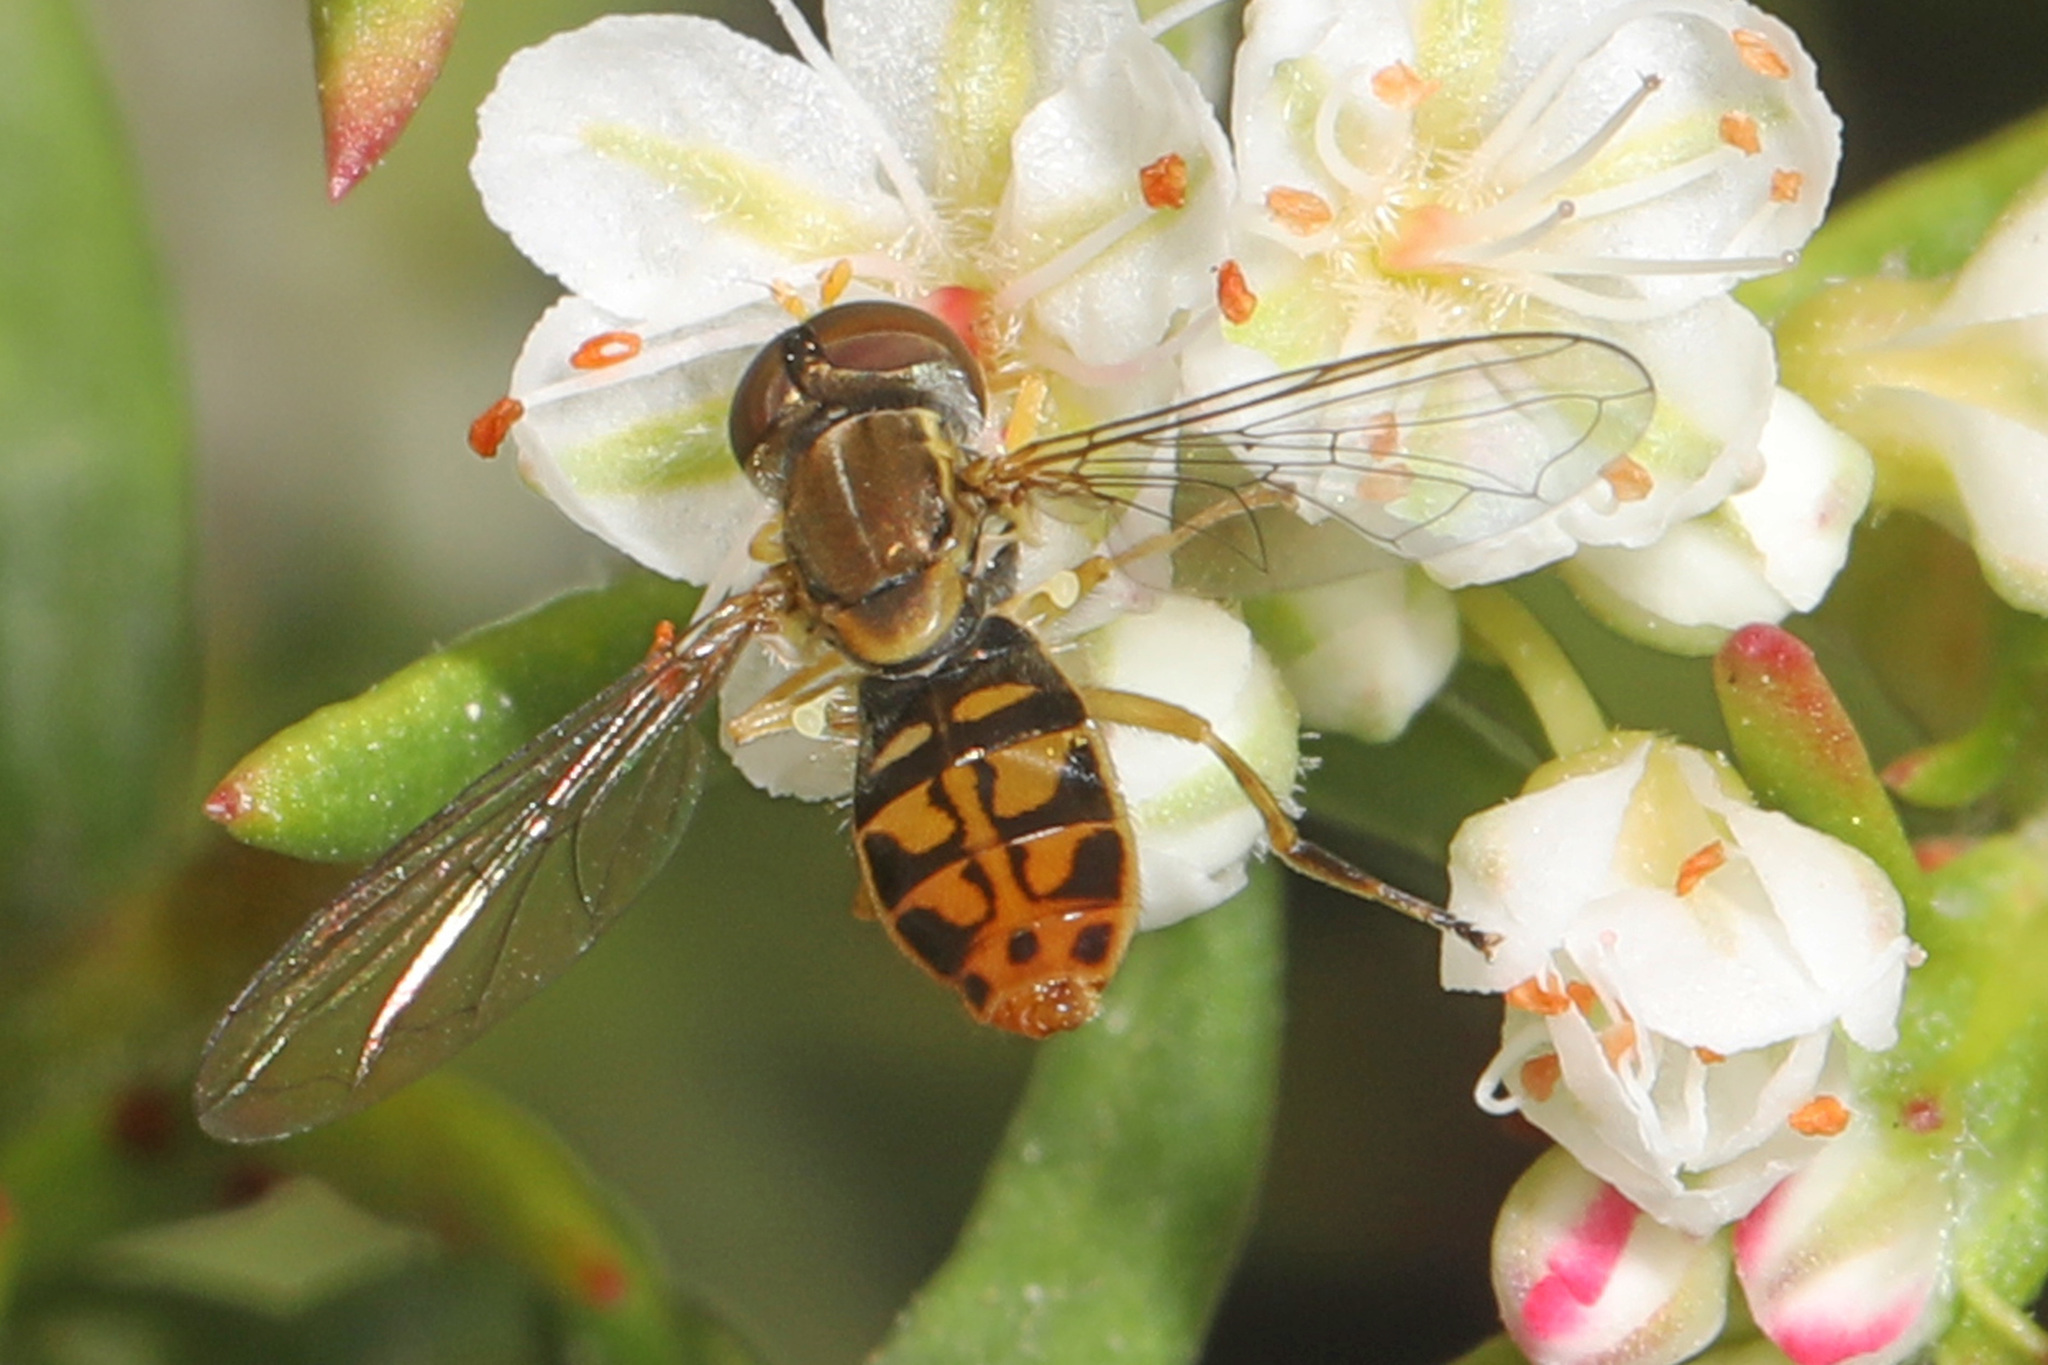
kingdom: Animalia
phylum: Arthropoda
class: Insecta
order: Diptera
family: Syrphidae
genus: Toxomerus
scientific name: Toxomerus marginatus
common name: Syrphid fly
